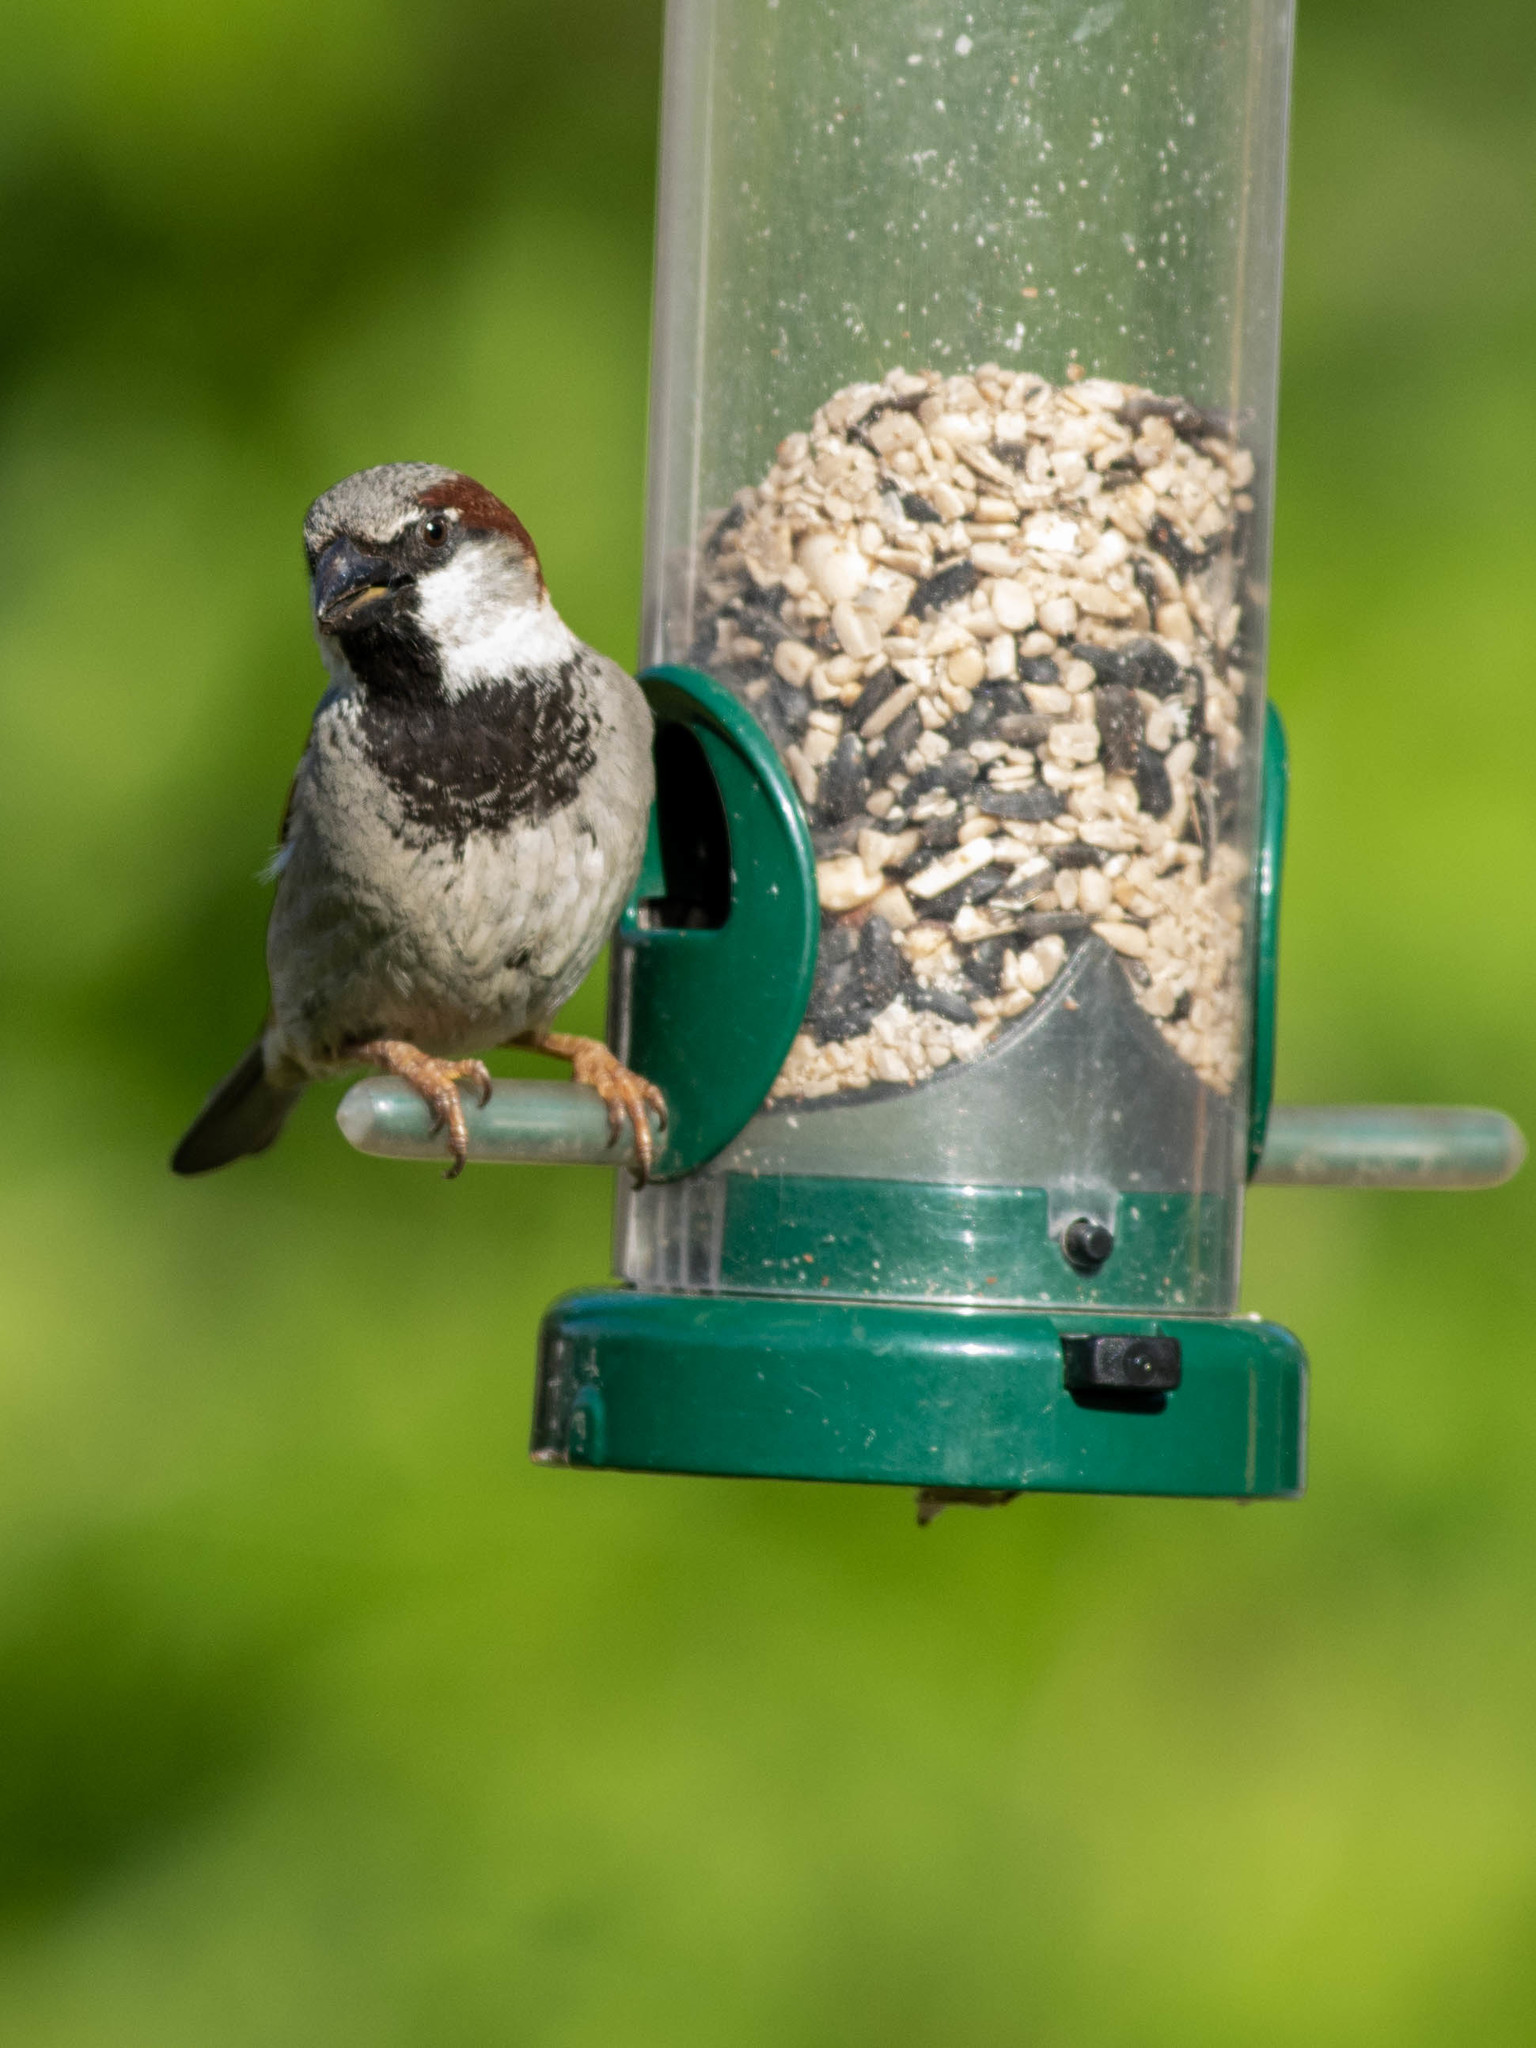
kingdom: Animalia
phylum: Chordata
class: Aves
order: Passeriformes
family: Passeridae
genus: Passer
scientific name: Passer domesticus
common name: House sparrow
